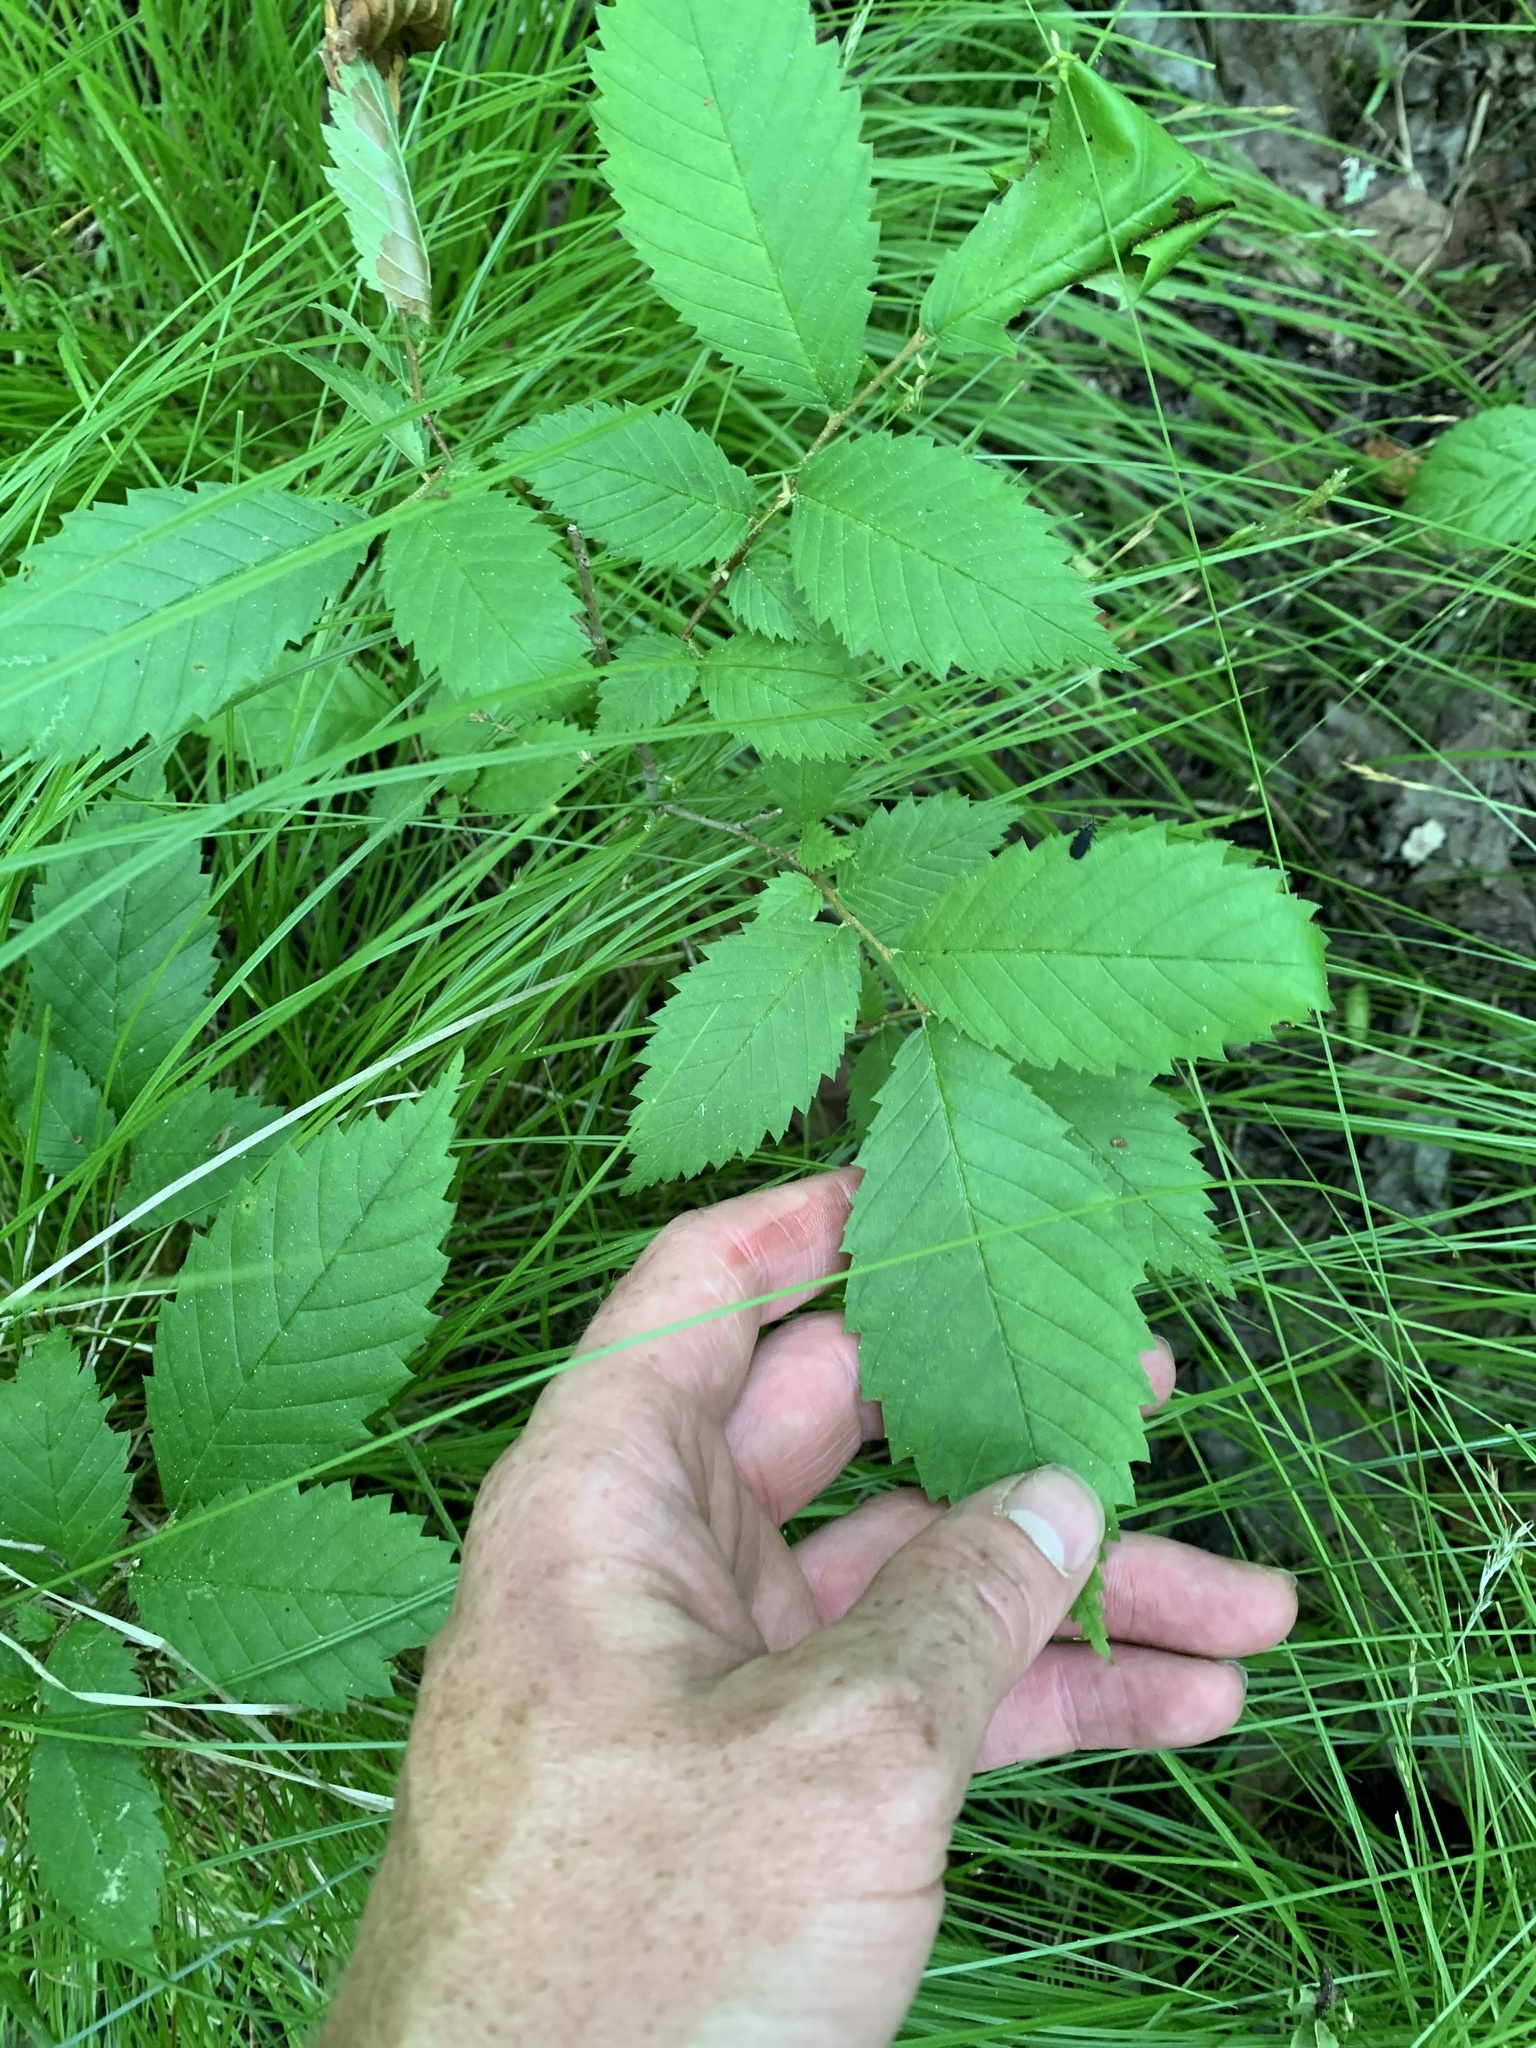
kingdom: Plantae
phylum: Tracheophyta
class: Magnoliopsida
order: Rosales
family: Ulmaceae
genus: Ulmus
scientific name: Ulmus americana
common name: American elm
